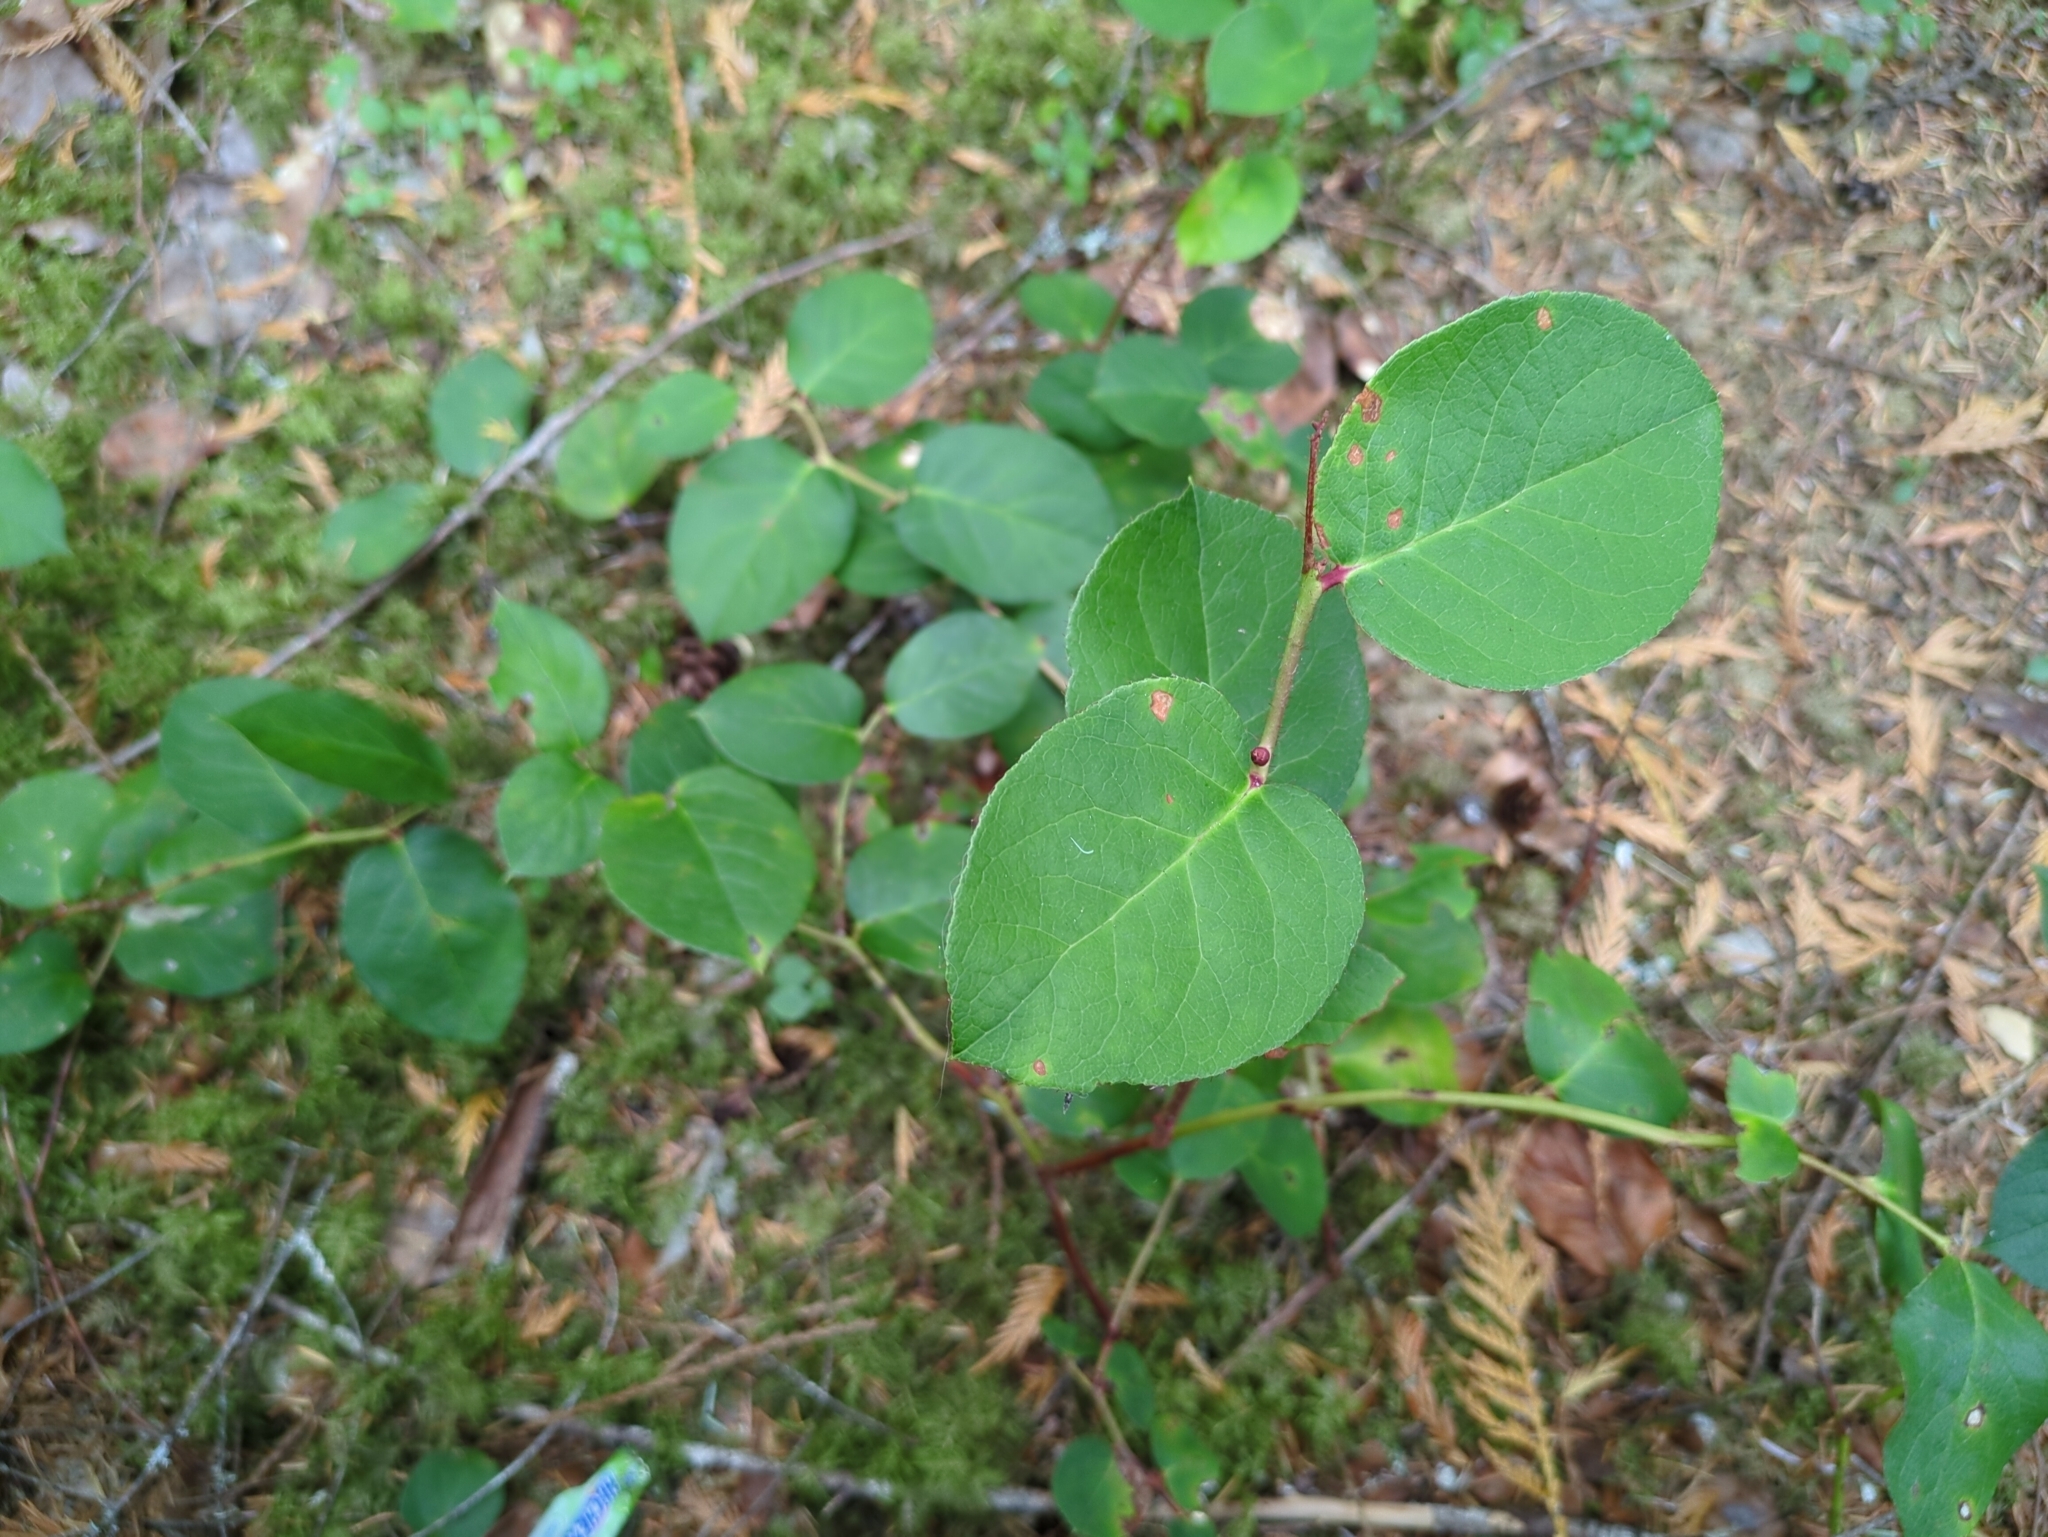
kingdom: Plantae
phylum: Tracheophyta
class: Magnoliopsida
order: Ericales
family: Ericaceae
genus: Gaultheria
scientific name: Gaultheria shallon
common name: Shallon
